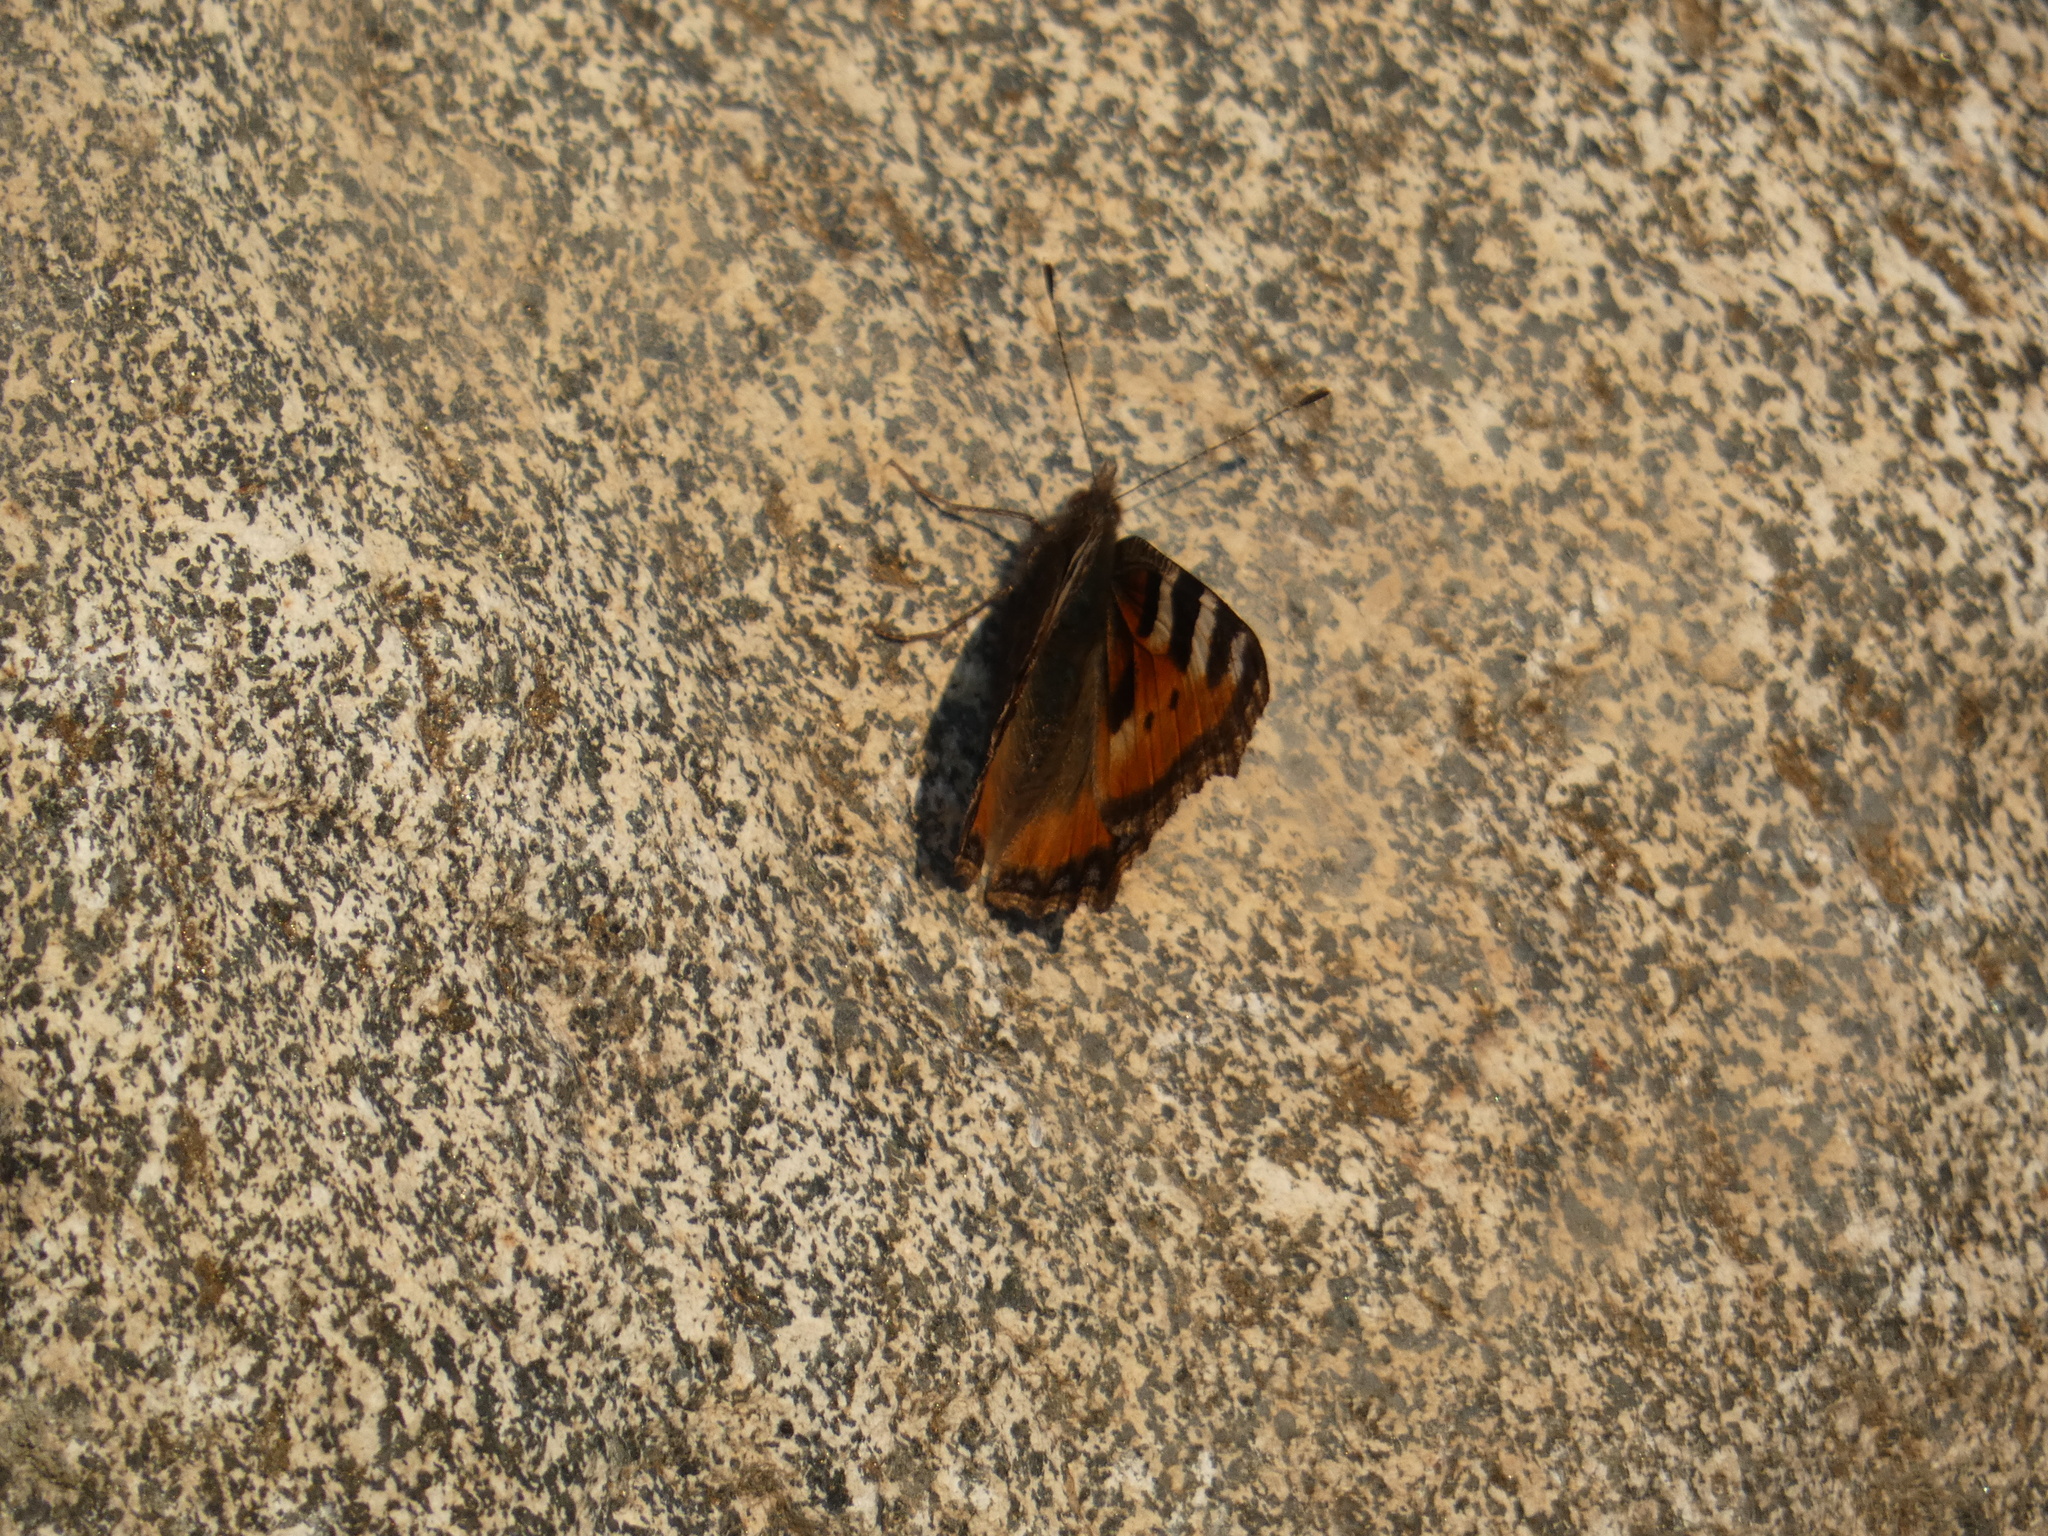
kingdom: Animalia
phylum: Arthropoda
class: Insecta
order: Lepidoptera
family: Nymphalidae
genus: Aglais
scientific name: Aglais urticae
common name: Small tortoiseshell
